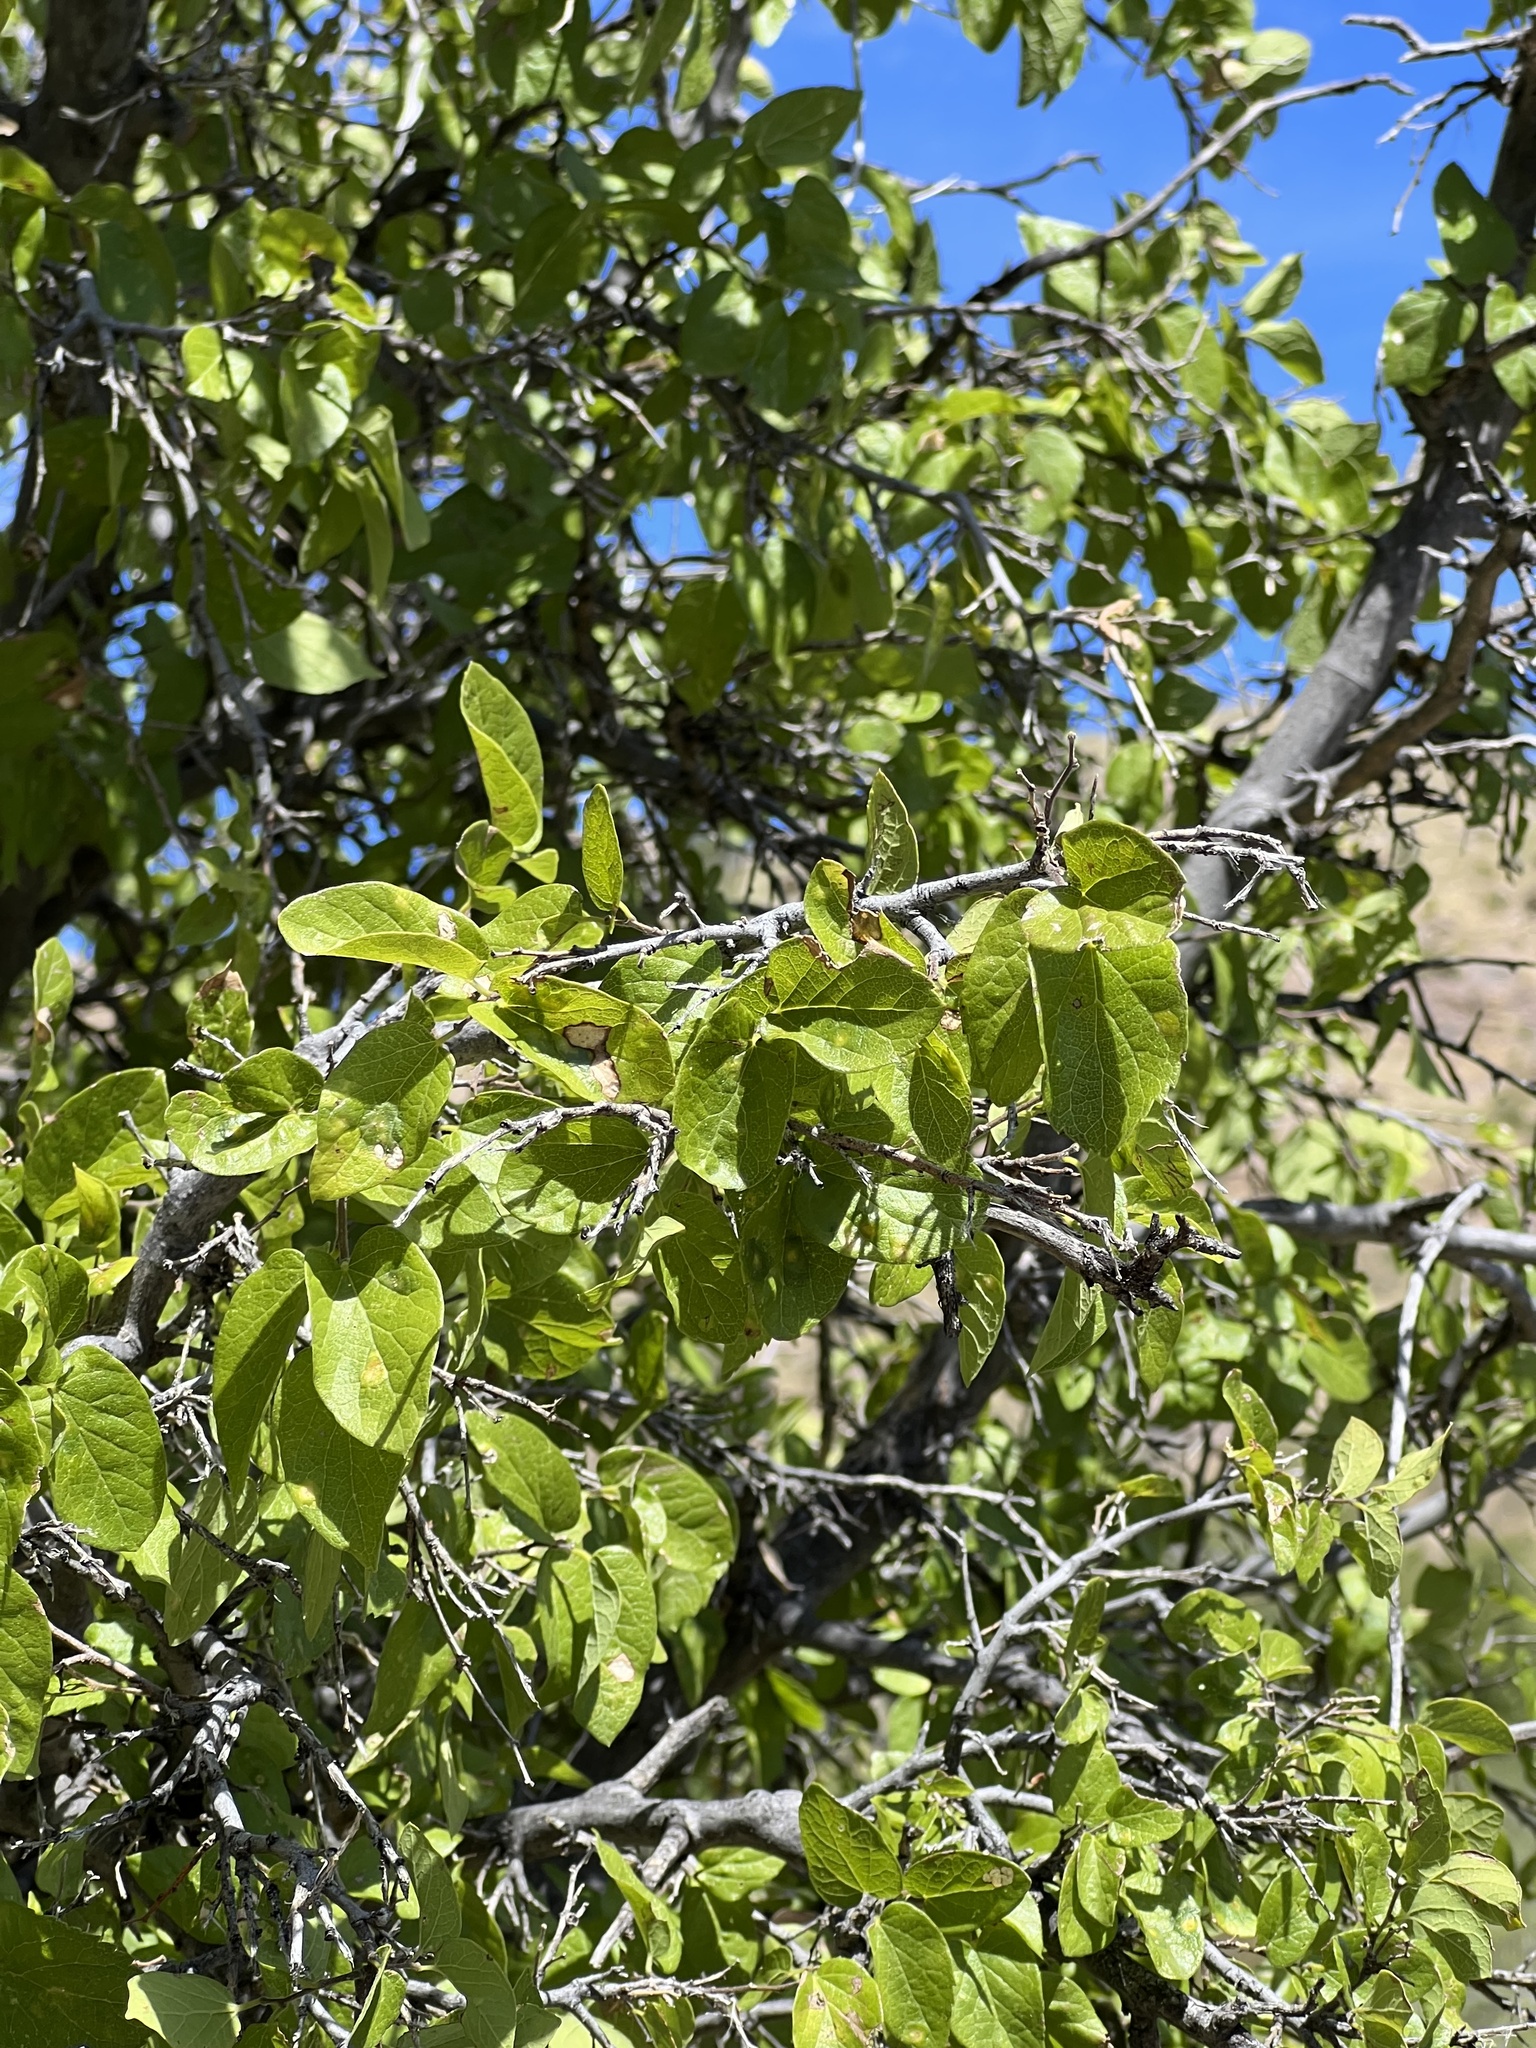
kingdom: Plantae
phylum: Tracheophyta
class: Magnoliopsida
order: Rosales
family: Cannabaceae
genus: Celtis
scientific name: Celtis reticulata
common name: Netleaf hackberry
